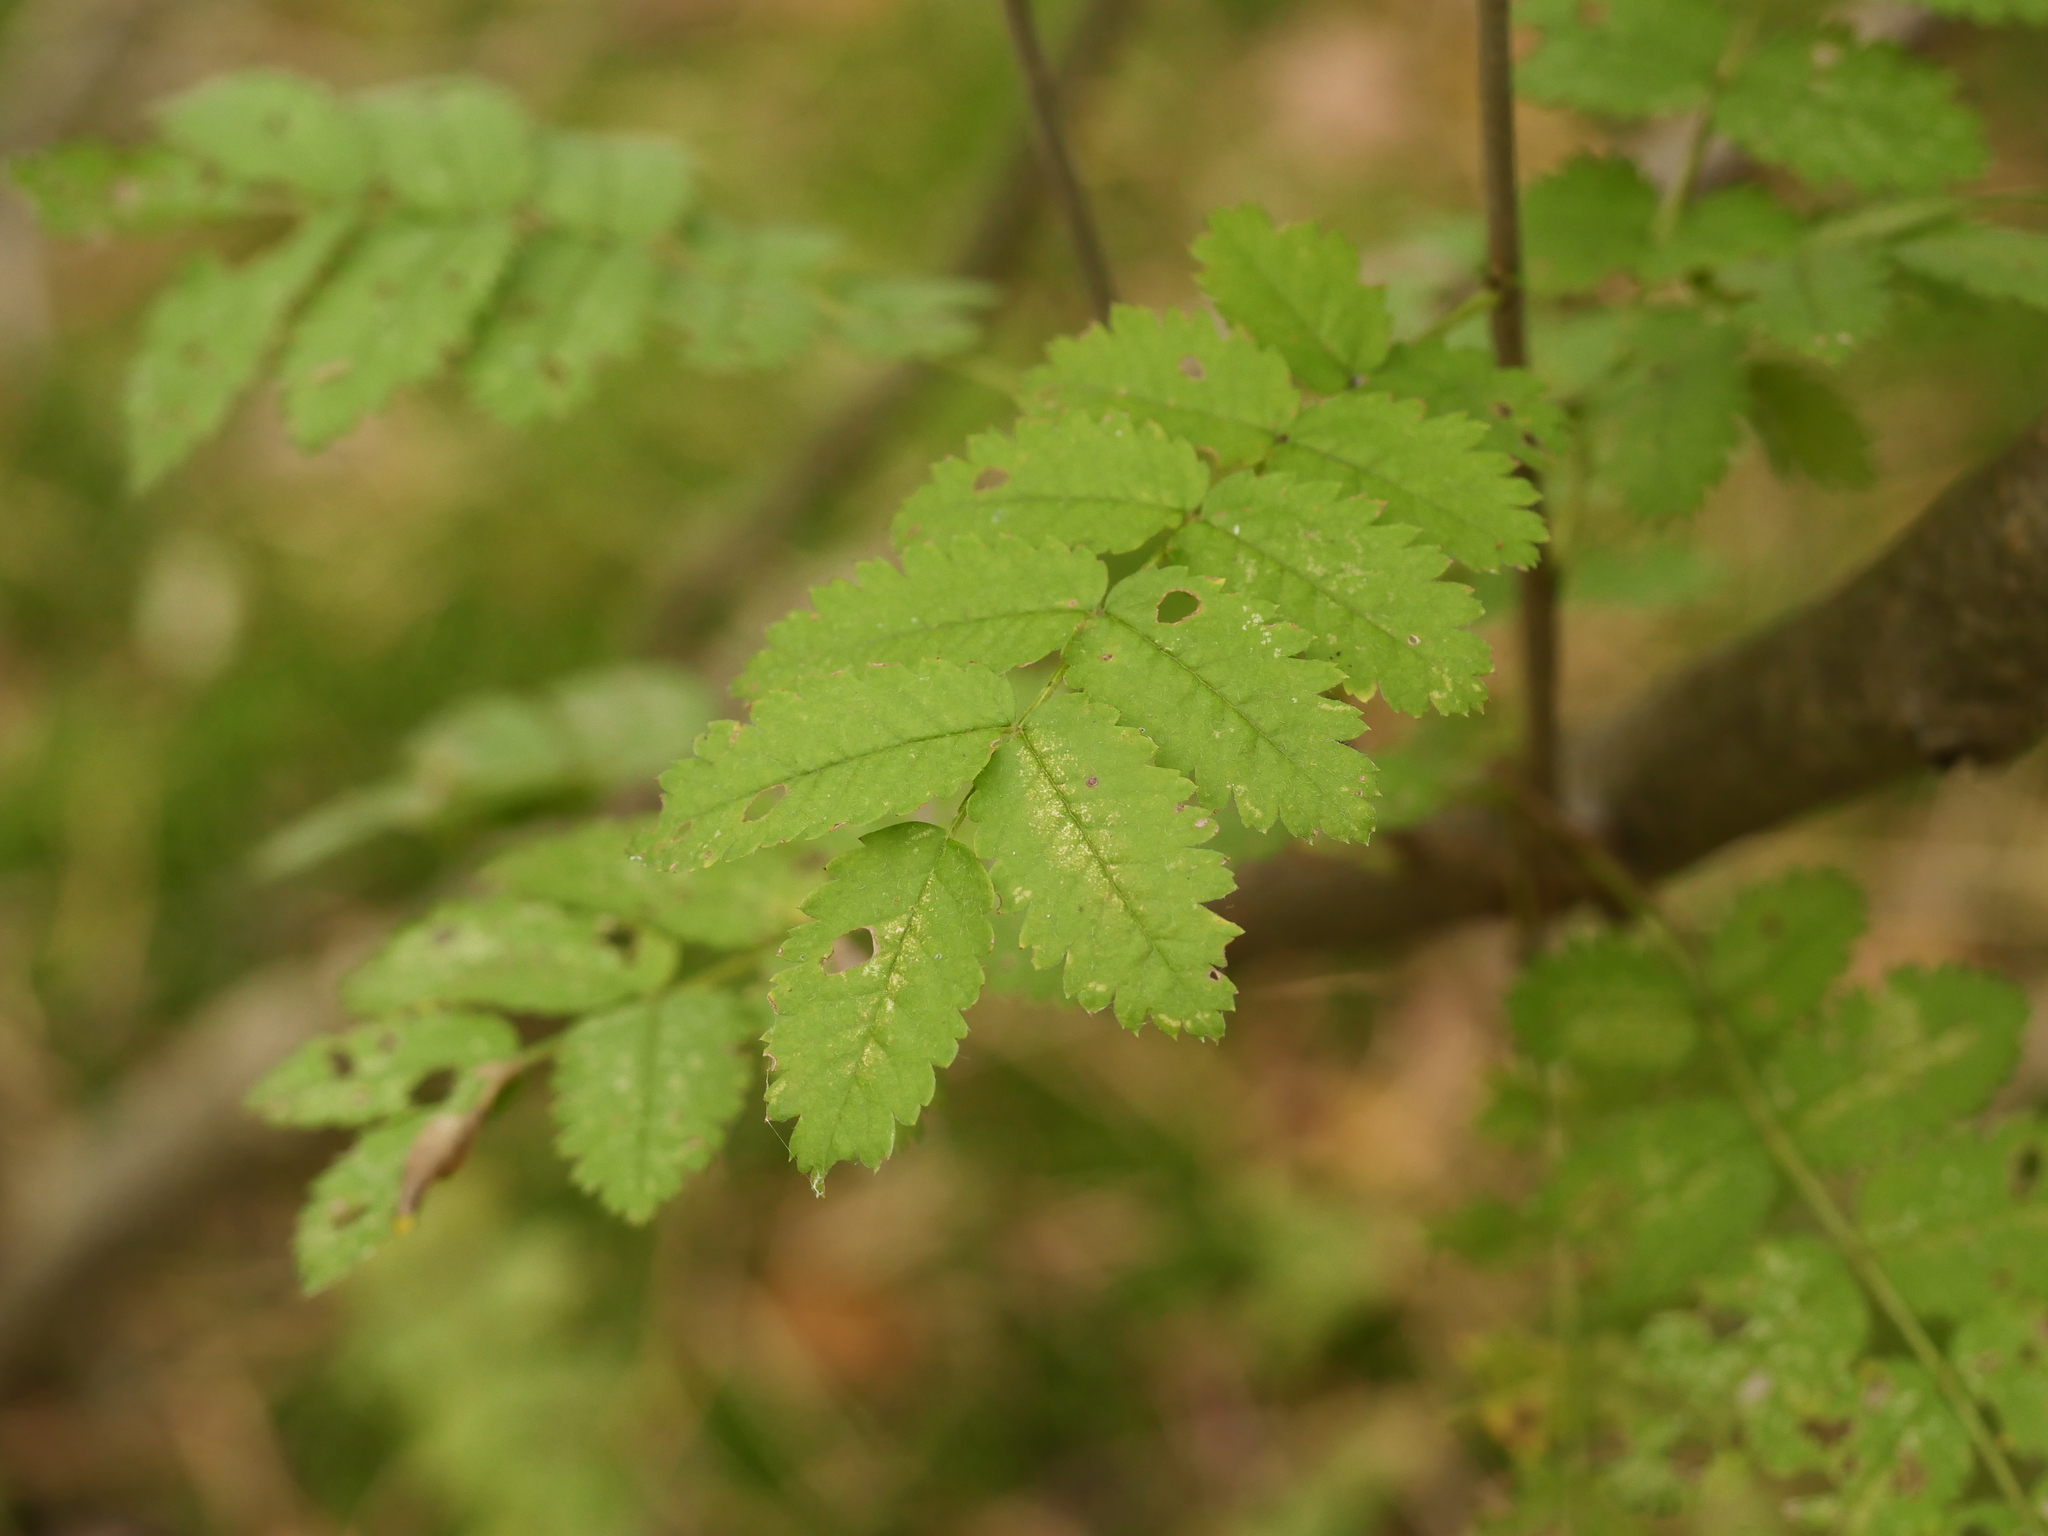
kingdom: Plantae
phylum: Tracheophyta
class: Magnoliopsida
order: Rosales
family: Rosaceae
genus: Sorbus
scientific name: Sorbus aucuparia
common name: Rowan
